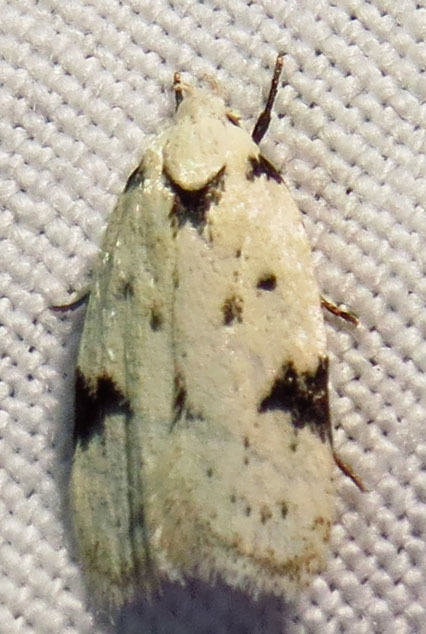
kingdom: Animalia
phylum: Arthropoda
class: Insecta
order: Lepidoptera
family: Oecophoridae
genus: Inga
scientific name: Inga sparsiciliella
